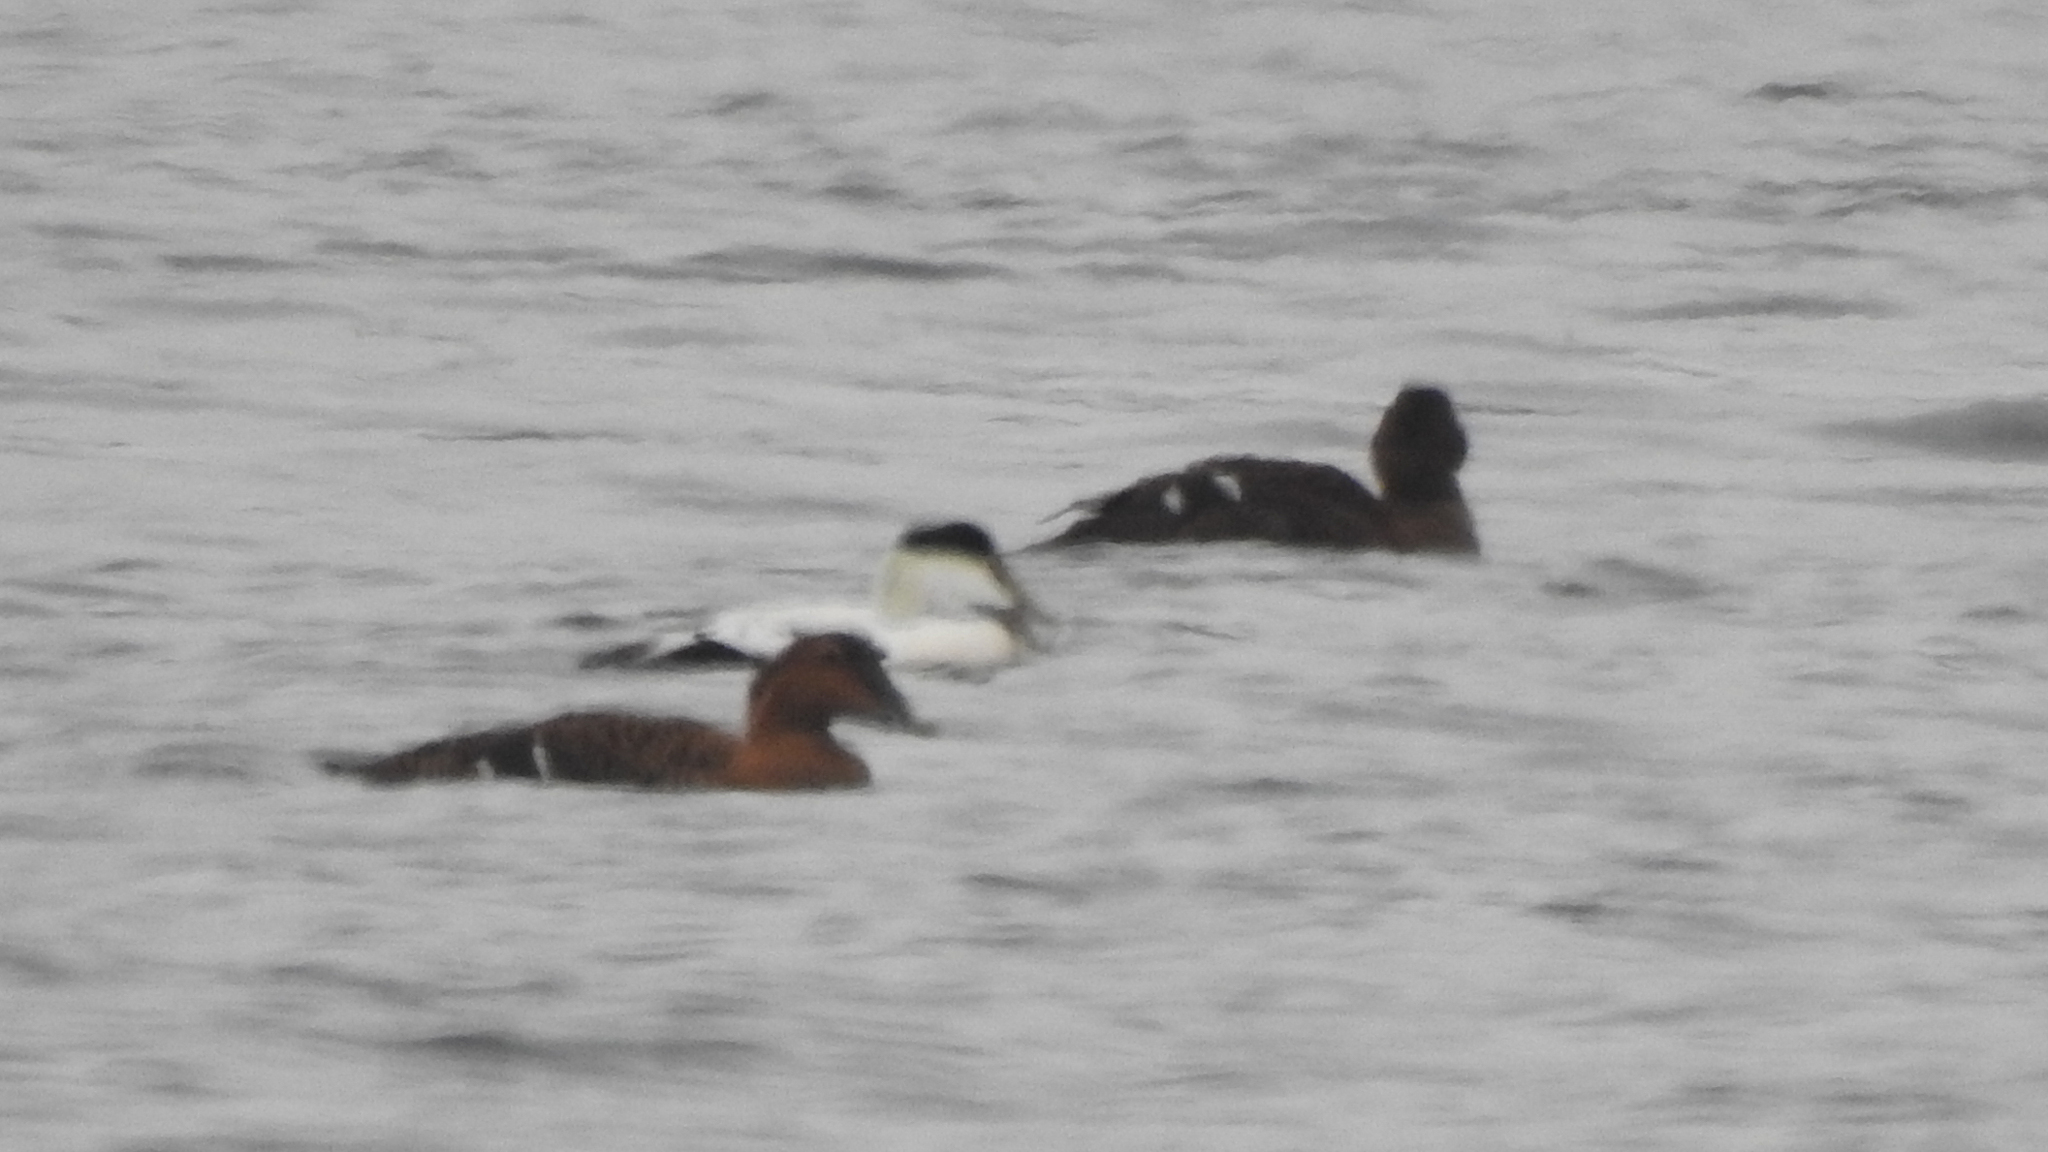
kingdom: Animalia
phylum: Chordata
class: Aves
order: Anseriformes
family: Anatidae
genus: Somateria
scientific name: Somateria mollissima
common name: Common eider
